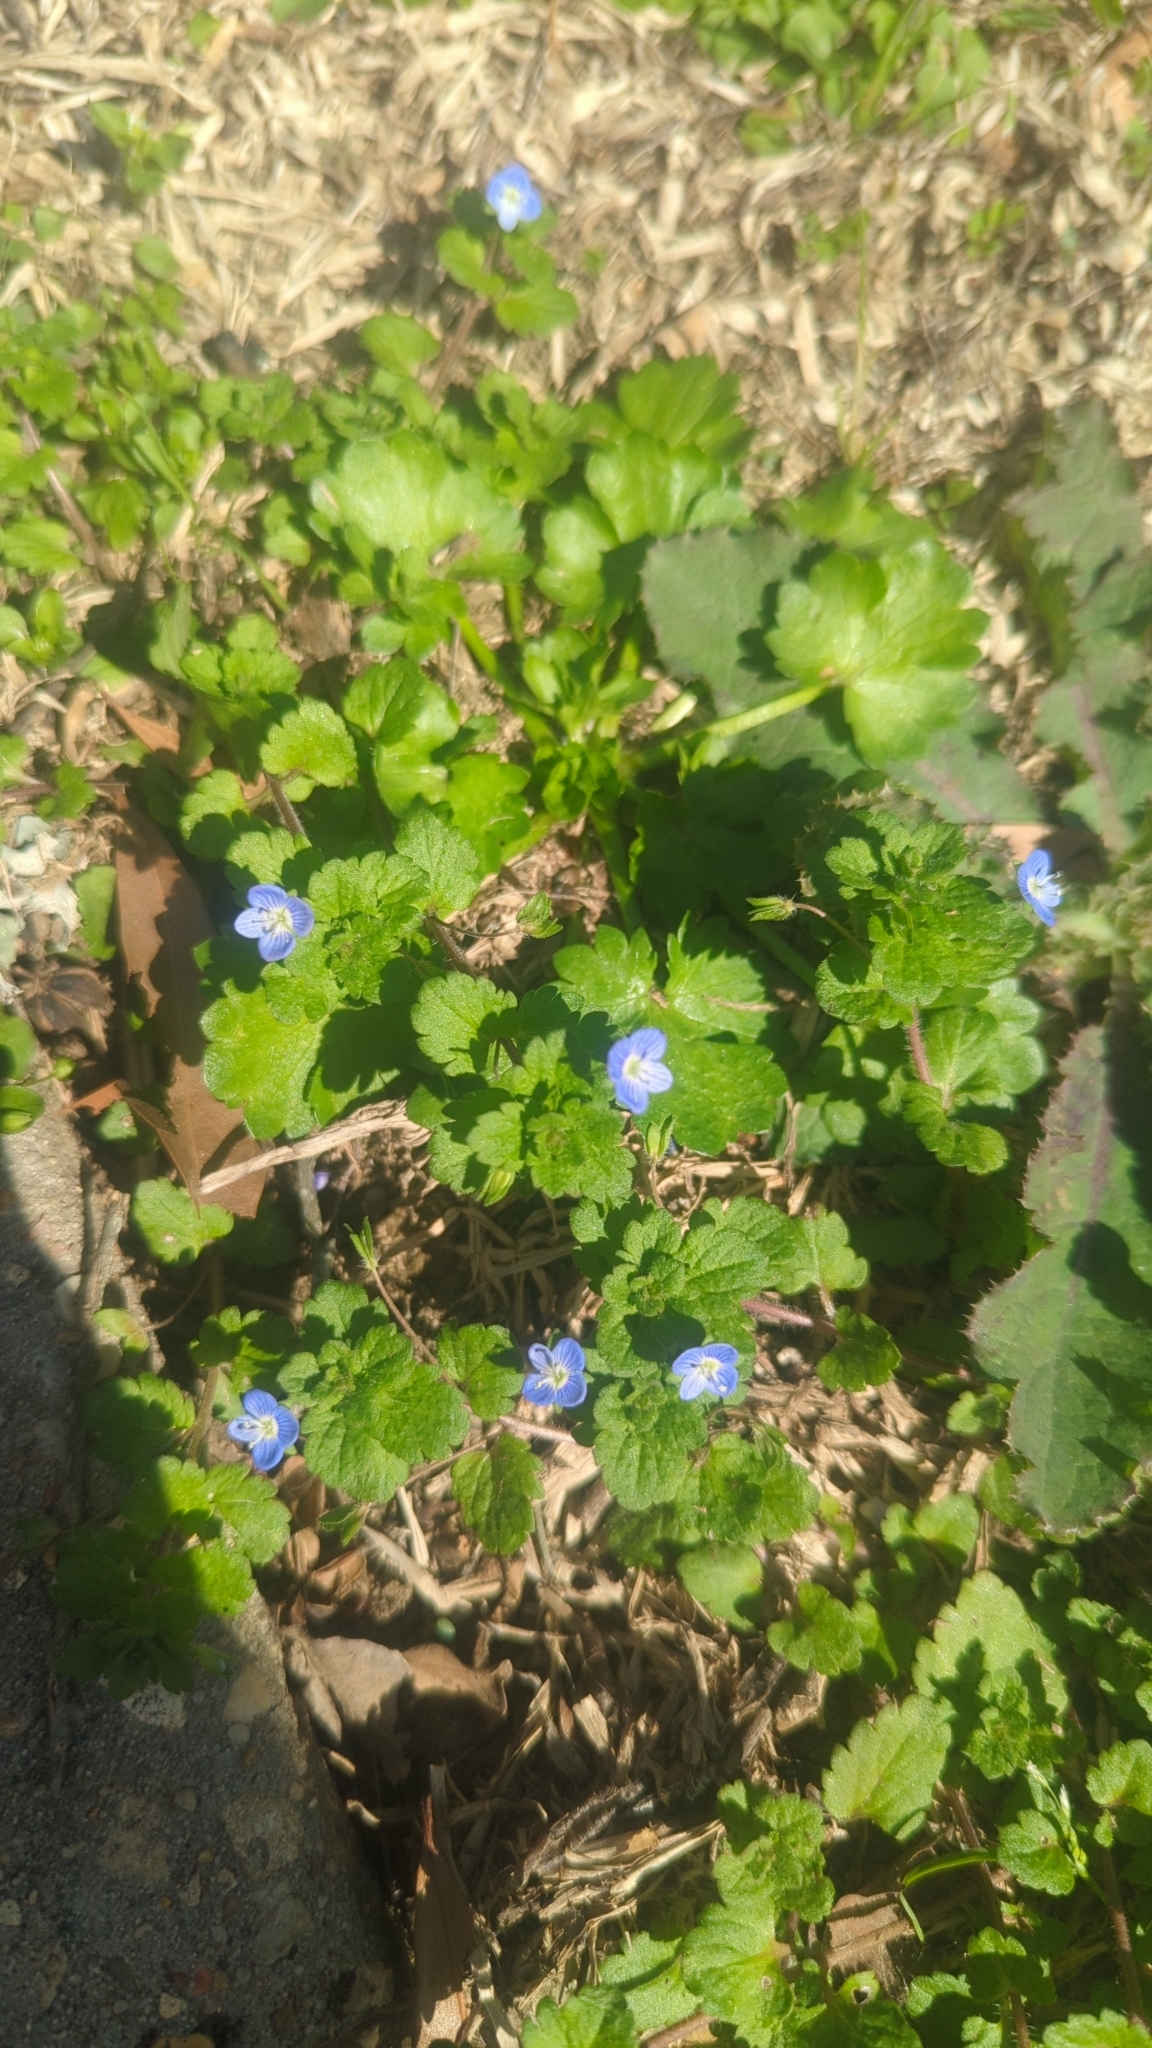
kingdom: Plantae
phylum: Tracheophyta
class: Magnoliopsida
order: Lamiales
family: Plantaginaceae
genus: Veronica
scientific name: Veronica persica
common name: Common field-speedwell
